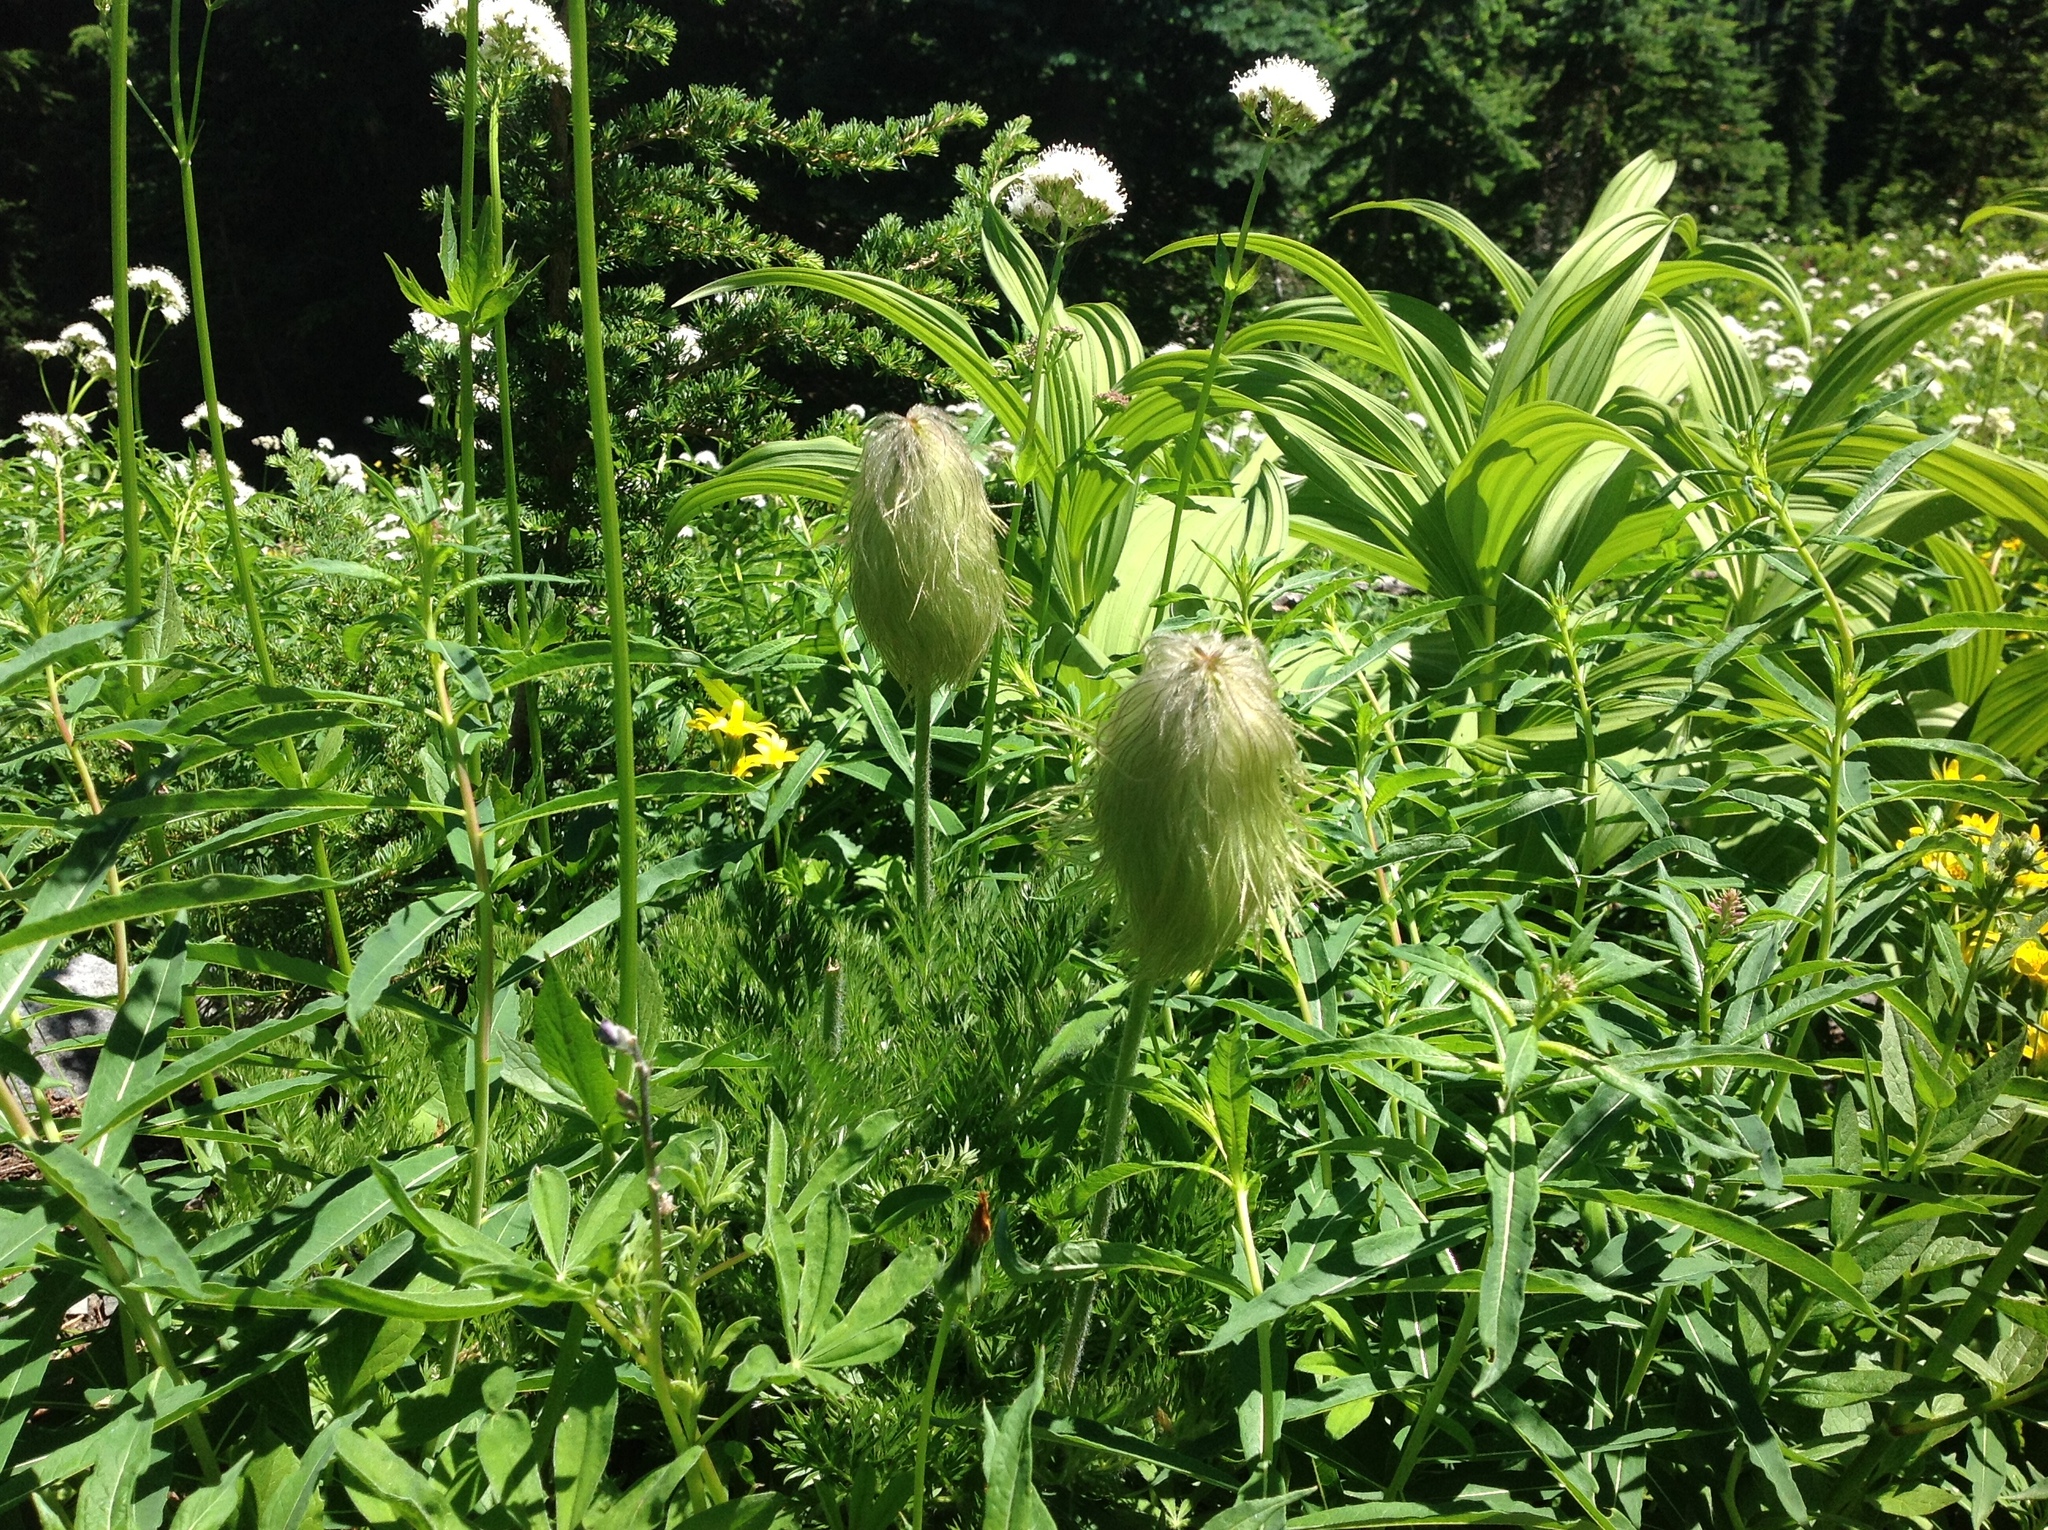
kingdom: Plantae
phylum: Tracheophyta
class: Magnoliopsida
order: Ranunculales
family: Ranunculaceae
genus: Pulsatilla
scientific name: Pulsatilla occidentalis
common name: Mountain pasqueflower
